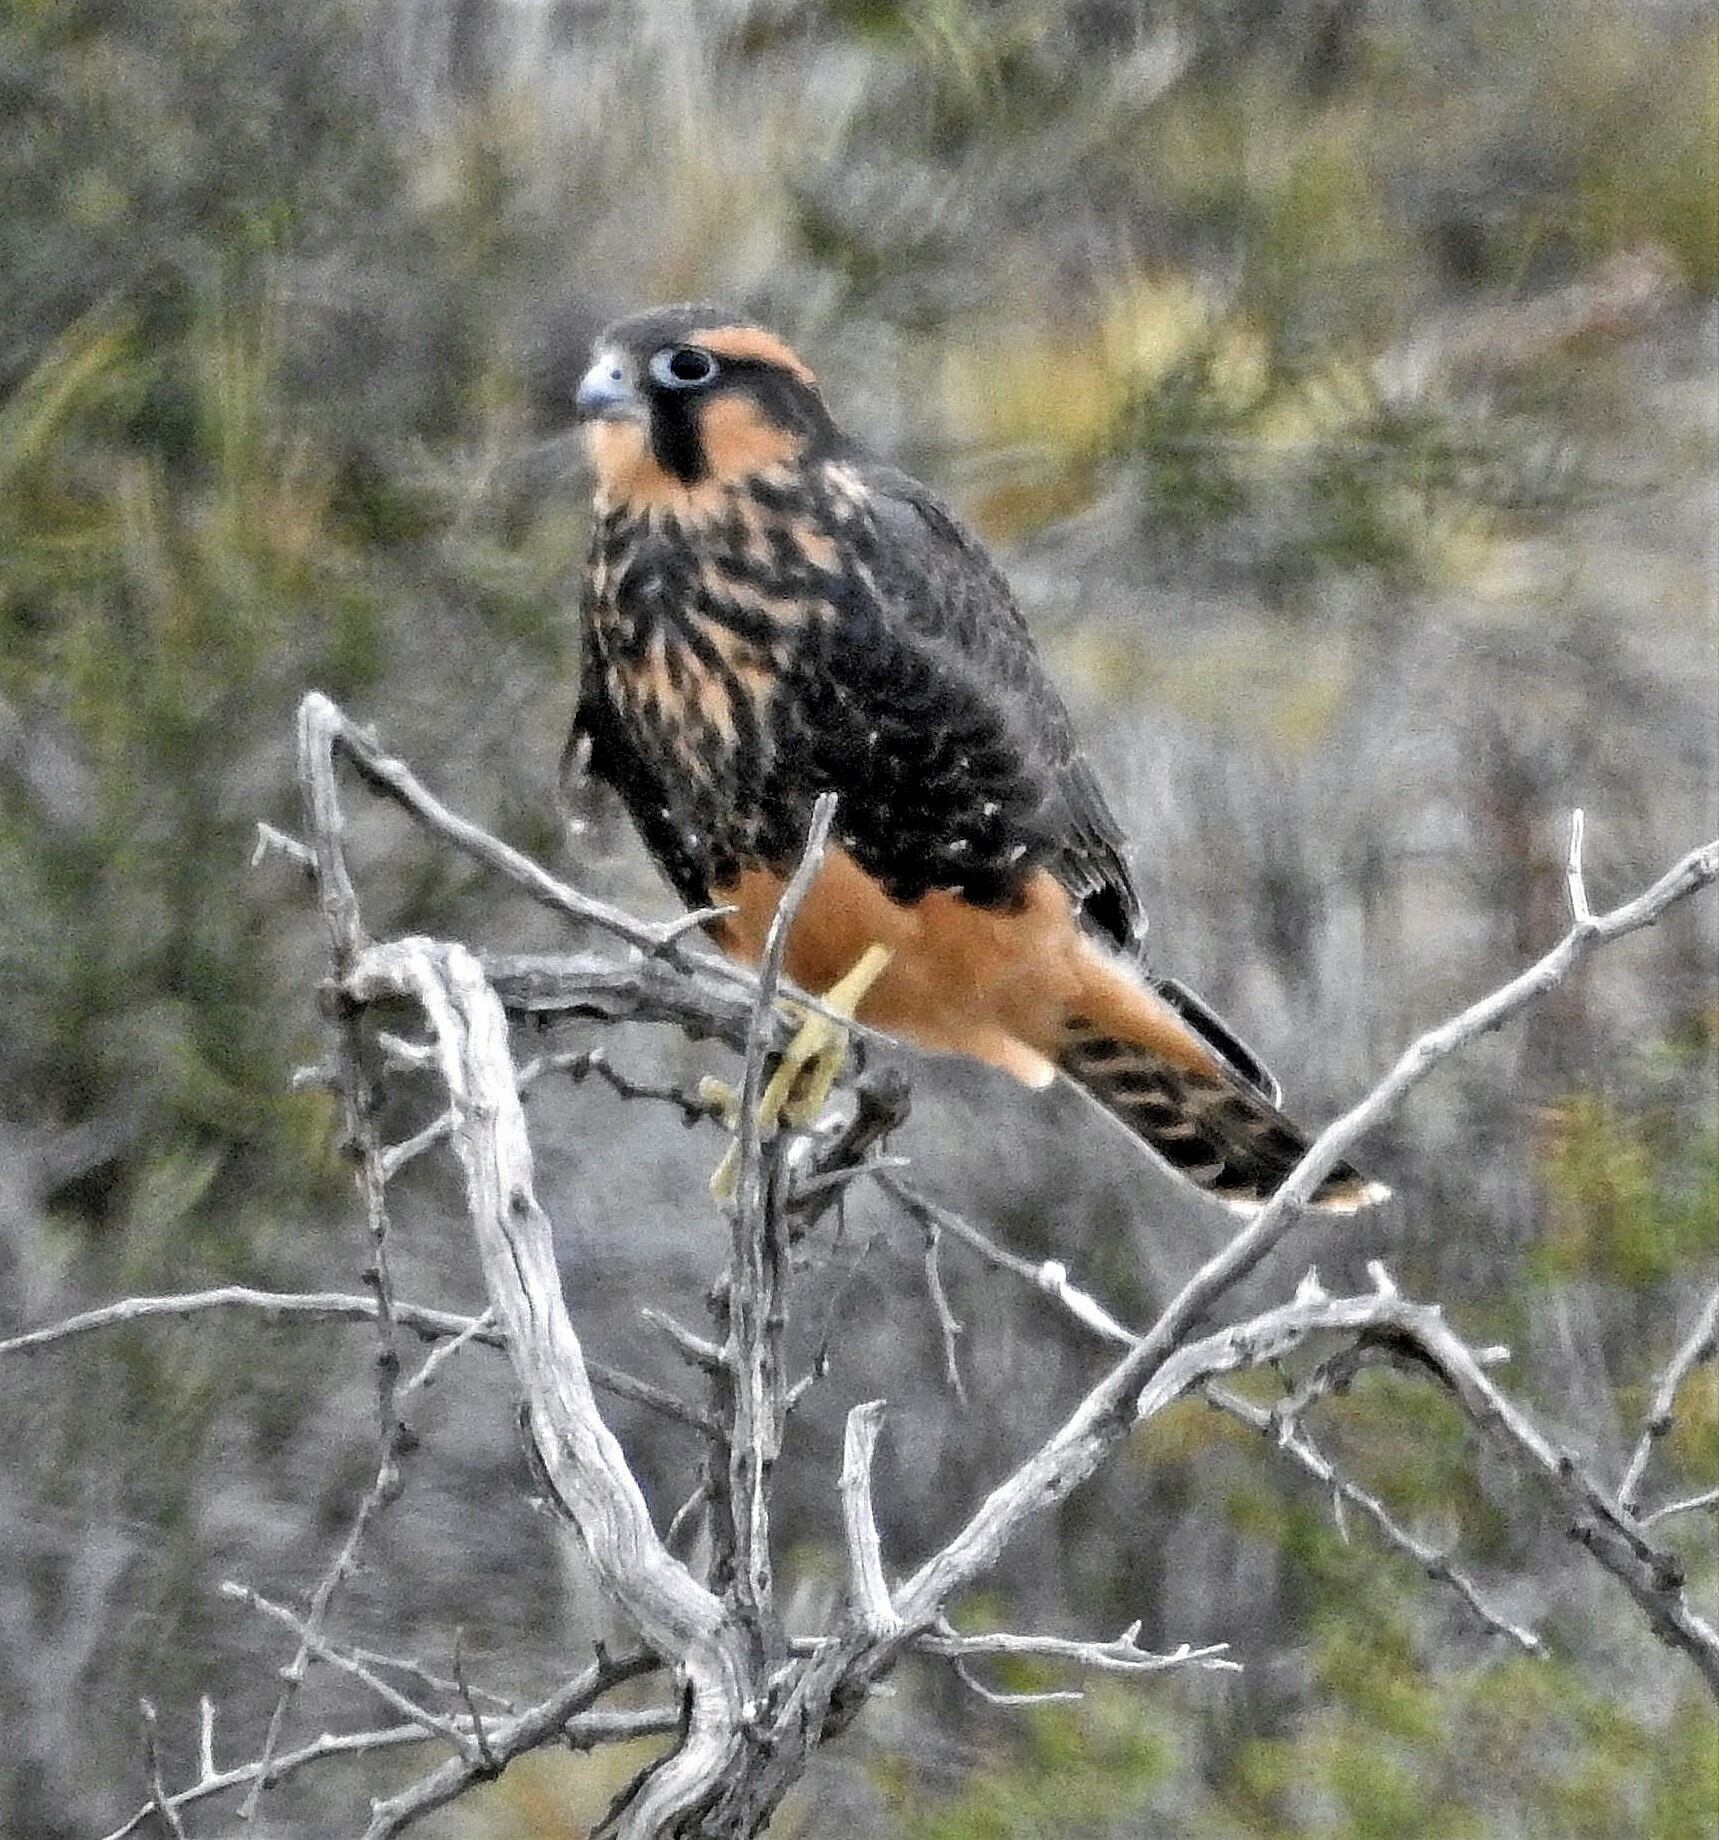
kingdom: Animalia
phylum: Chordata
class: Aves
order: Falconiformes
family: Falconidae
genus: Falco
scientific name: Falco femoralis
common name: Aplomado falcon
